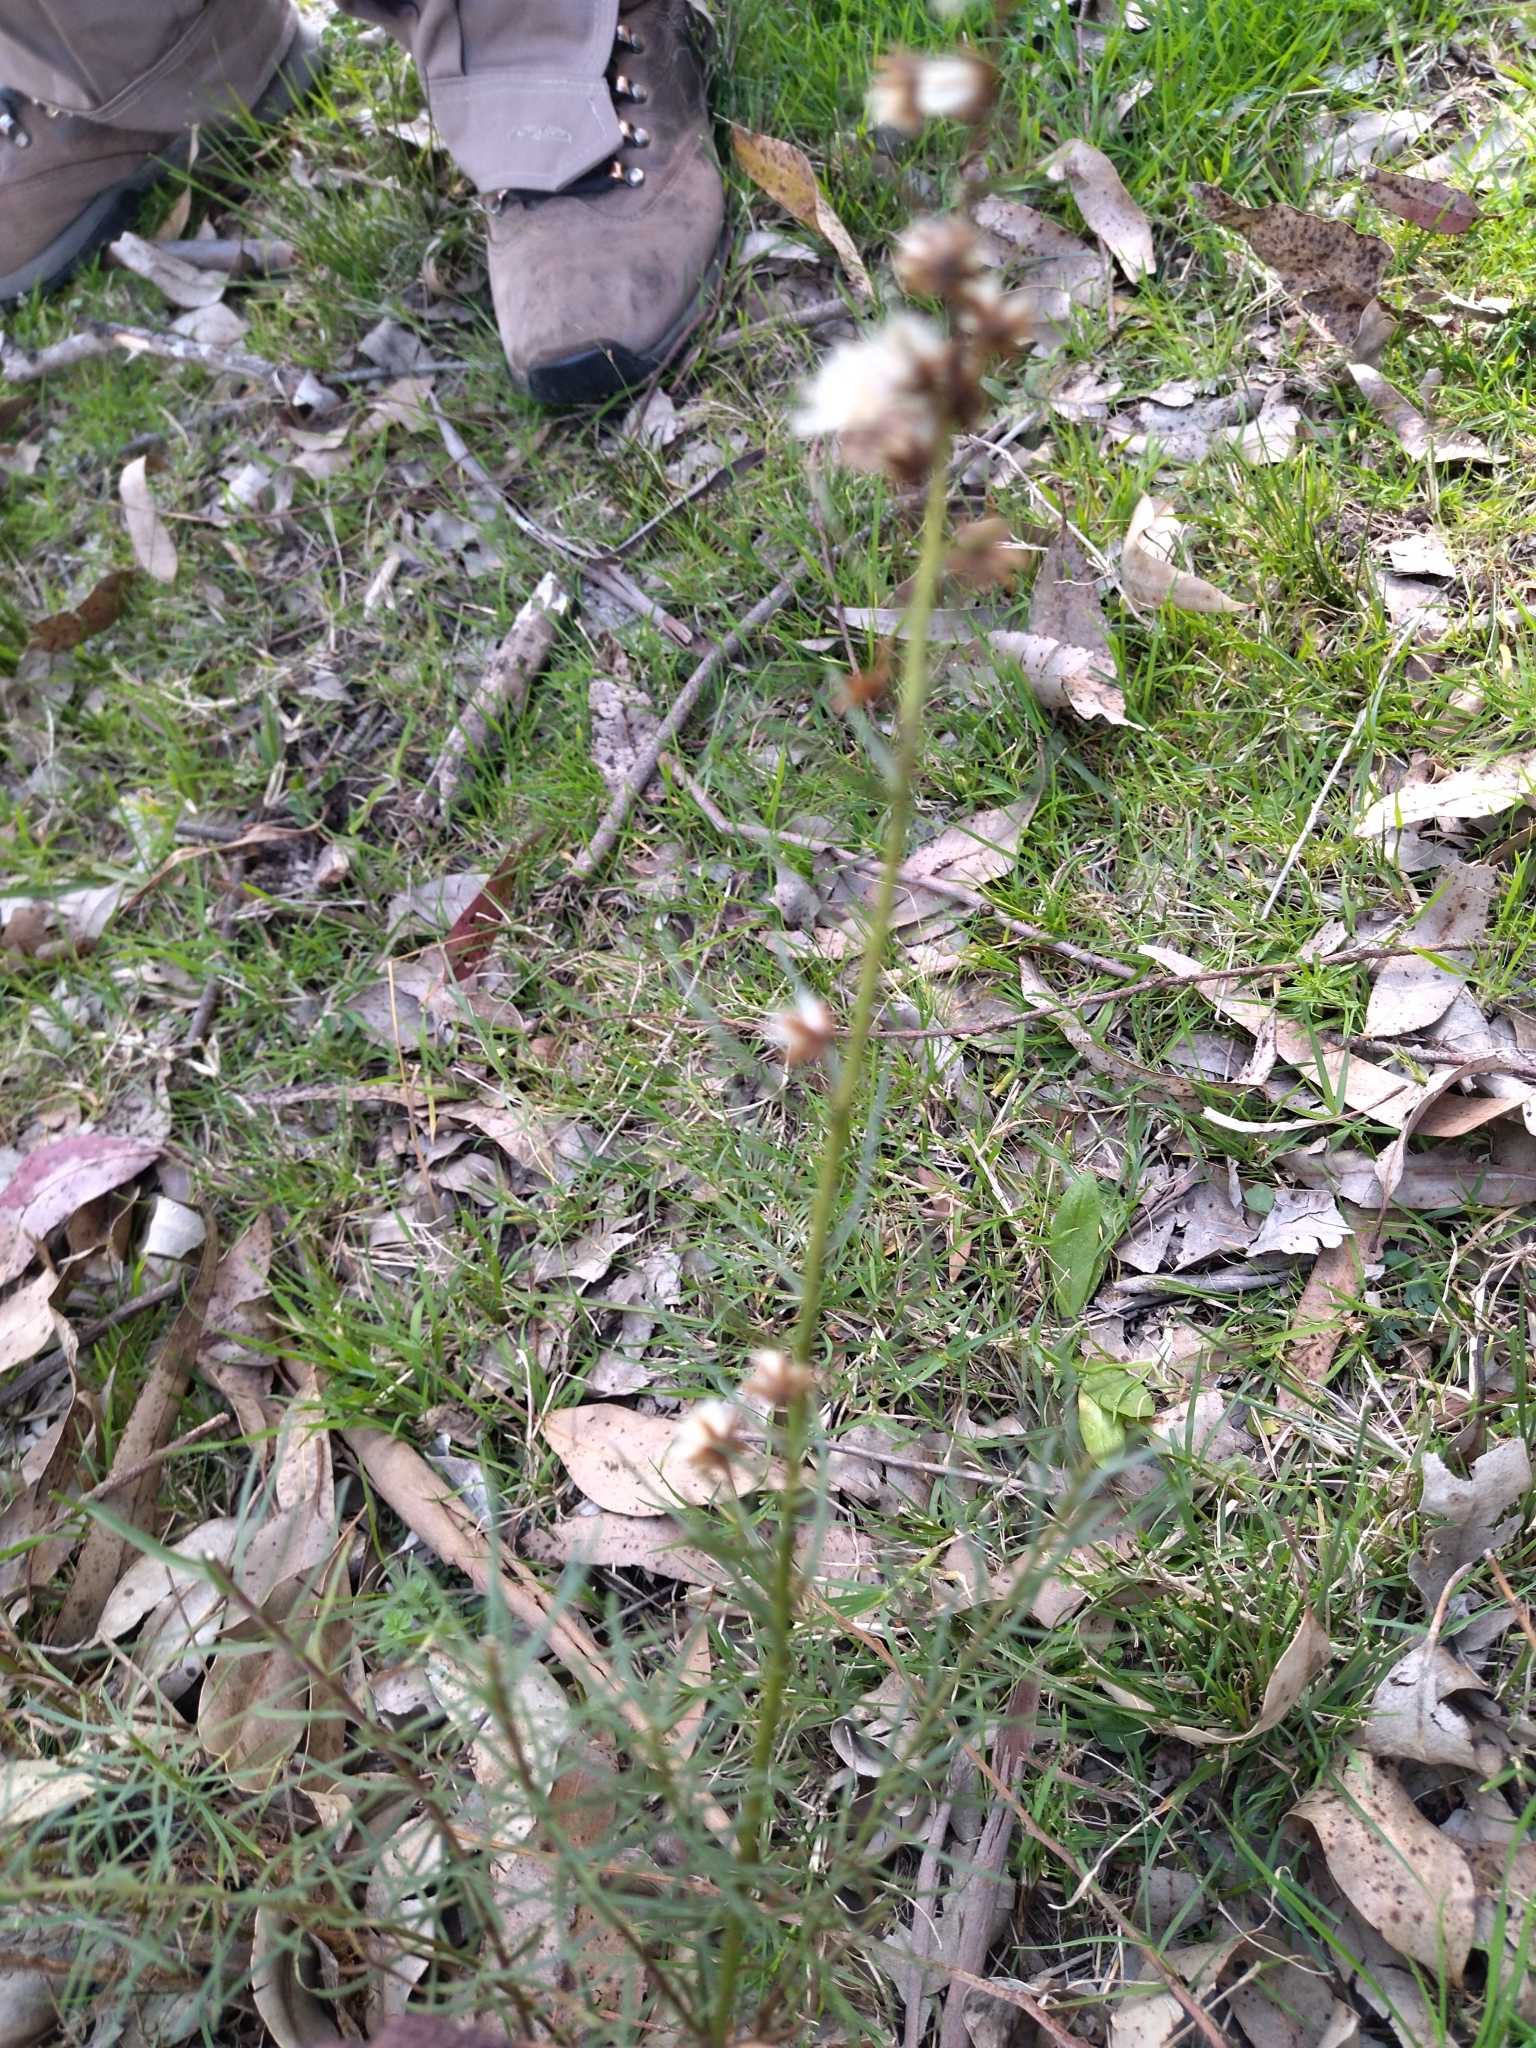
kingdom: Plantae
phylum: Tracheophyta
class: Magnoliopsida
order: Asterales
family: Asteraceae
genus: Baccharis
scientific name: Baccharis coridifolia
